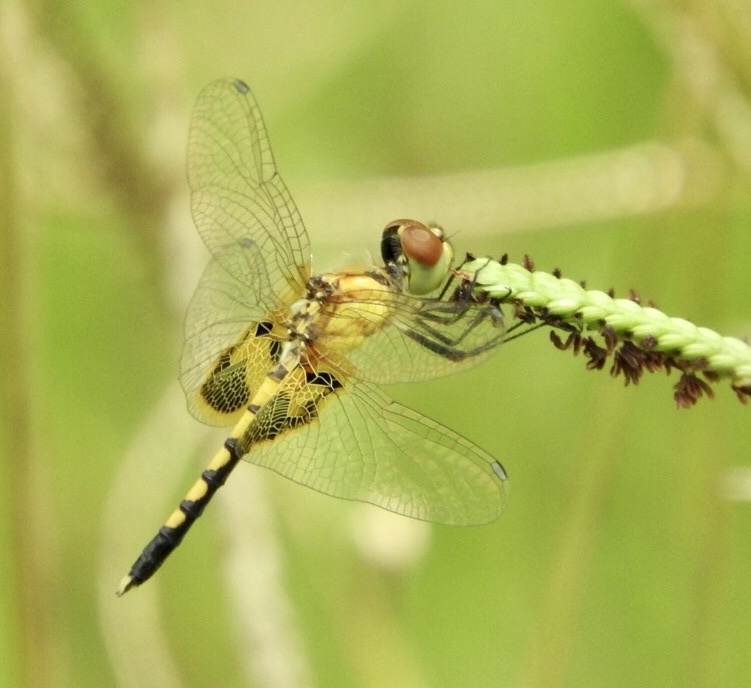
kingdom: Animalia
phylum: Arthropoda
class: Insecta
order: Odonata
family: Libellulidae
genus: Celithemis
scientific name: Celithemis amanda
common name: Amanda's pennant
